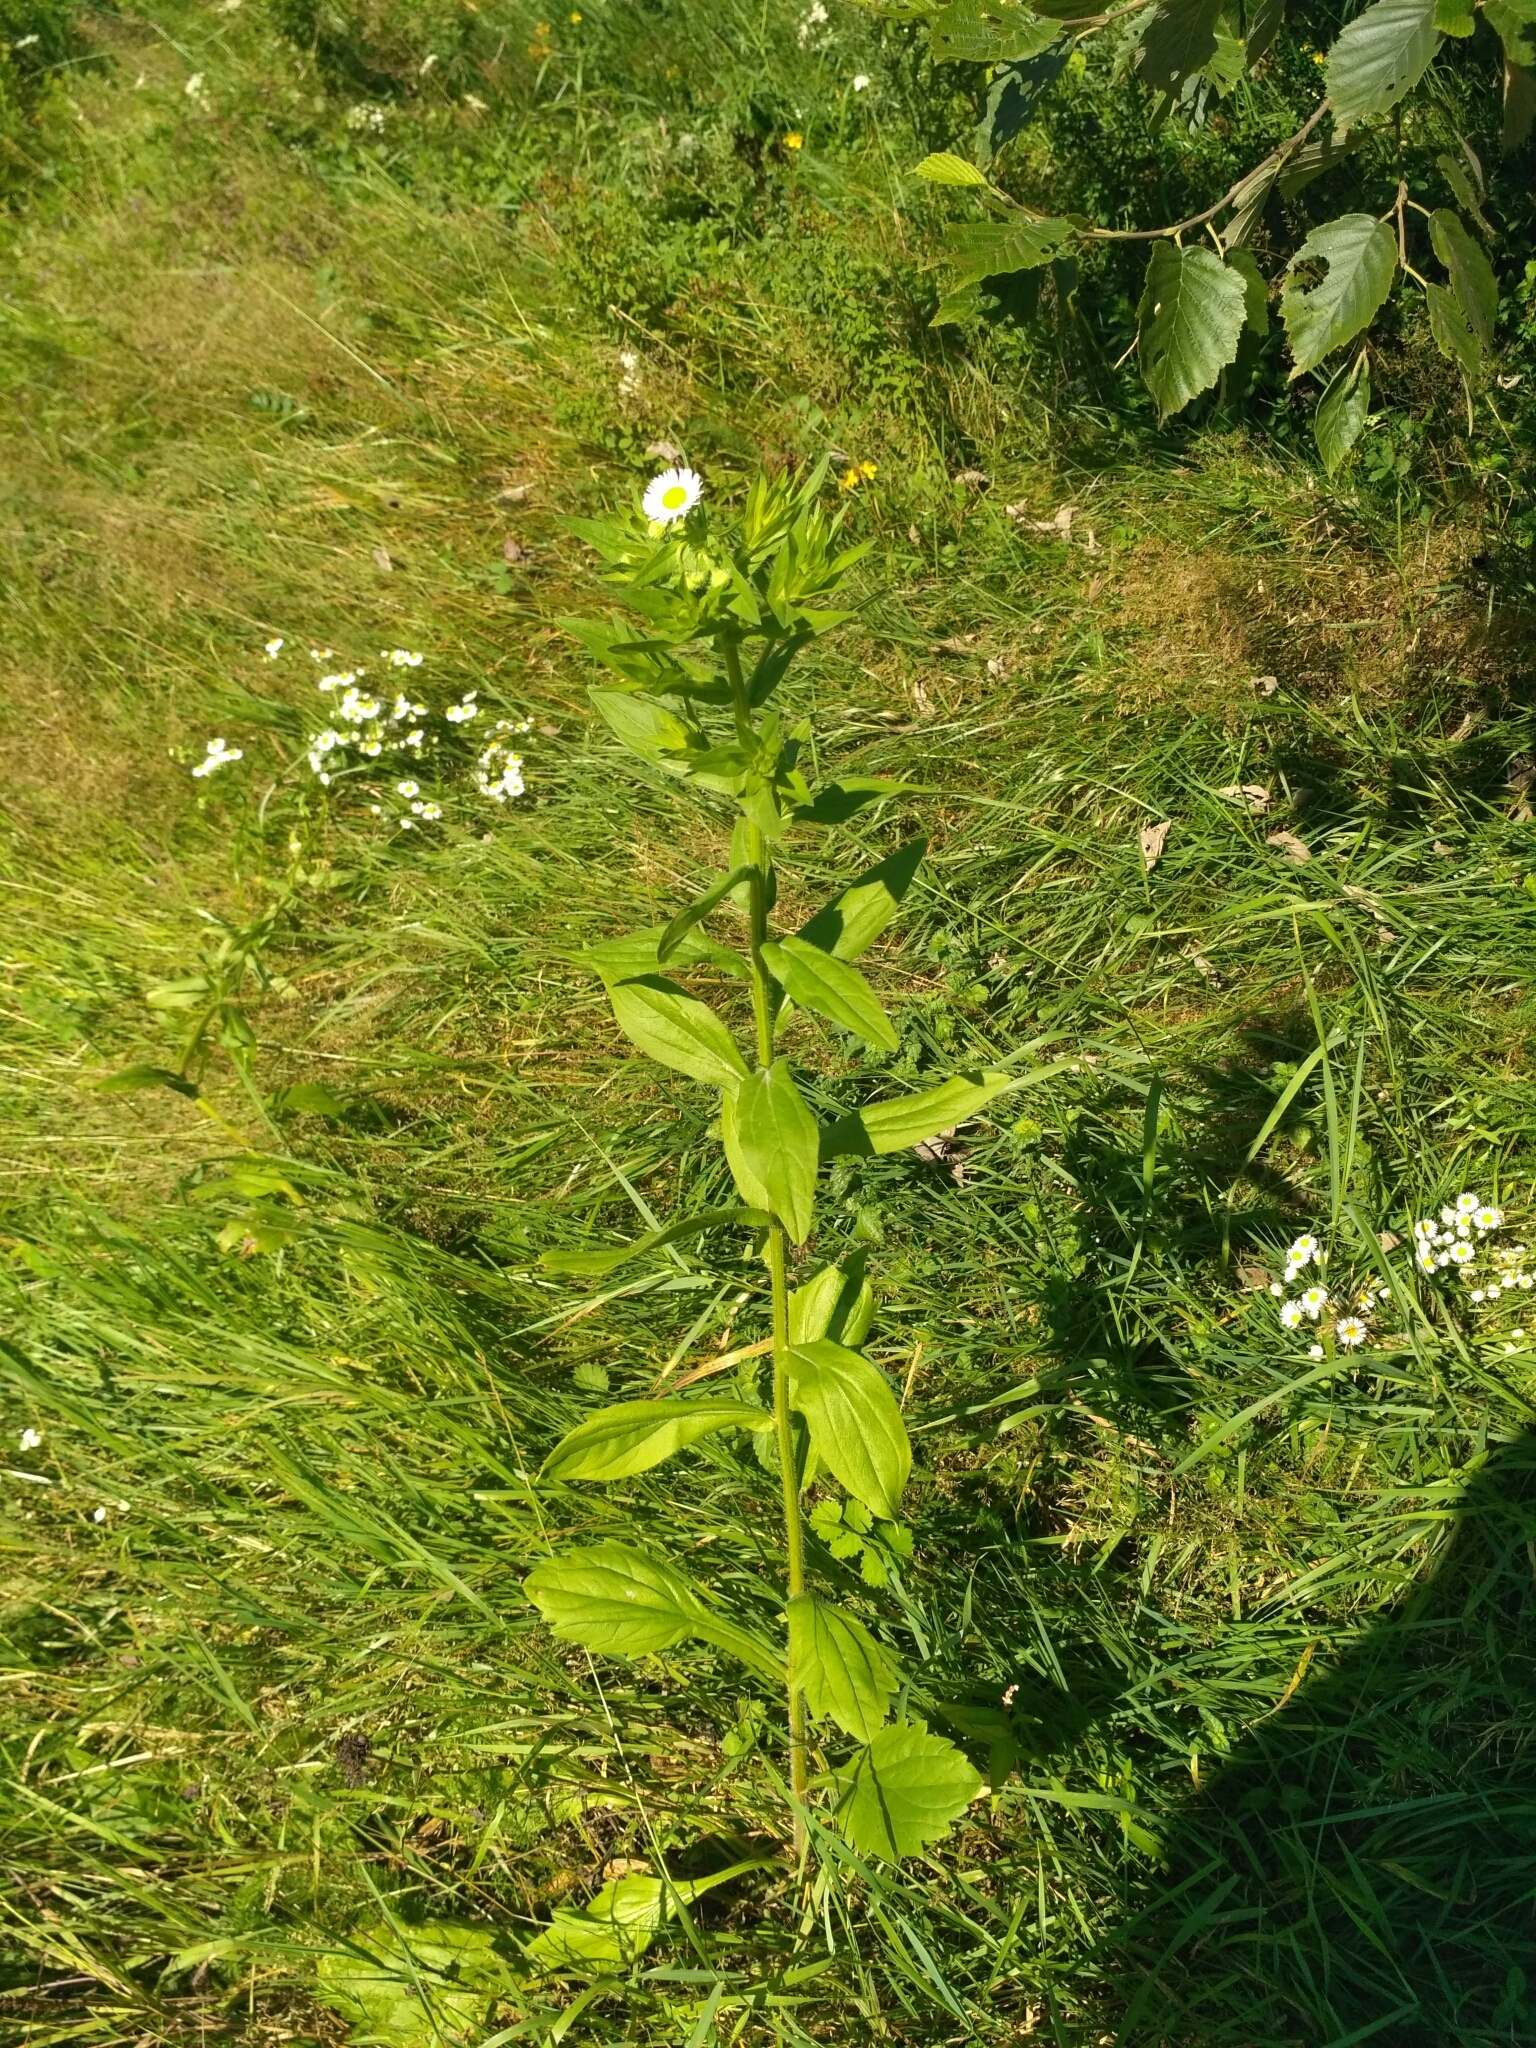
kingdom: Plantae
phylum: Tracheophyta
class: Magnoliopsida
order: Asterales
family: Asteraceae
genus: Erigeron
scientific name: Erigeron annuus
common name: Tall fleabane
